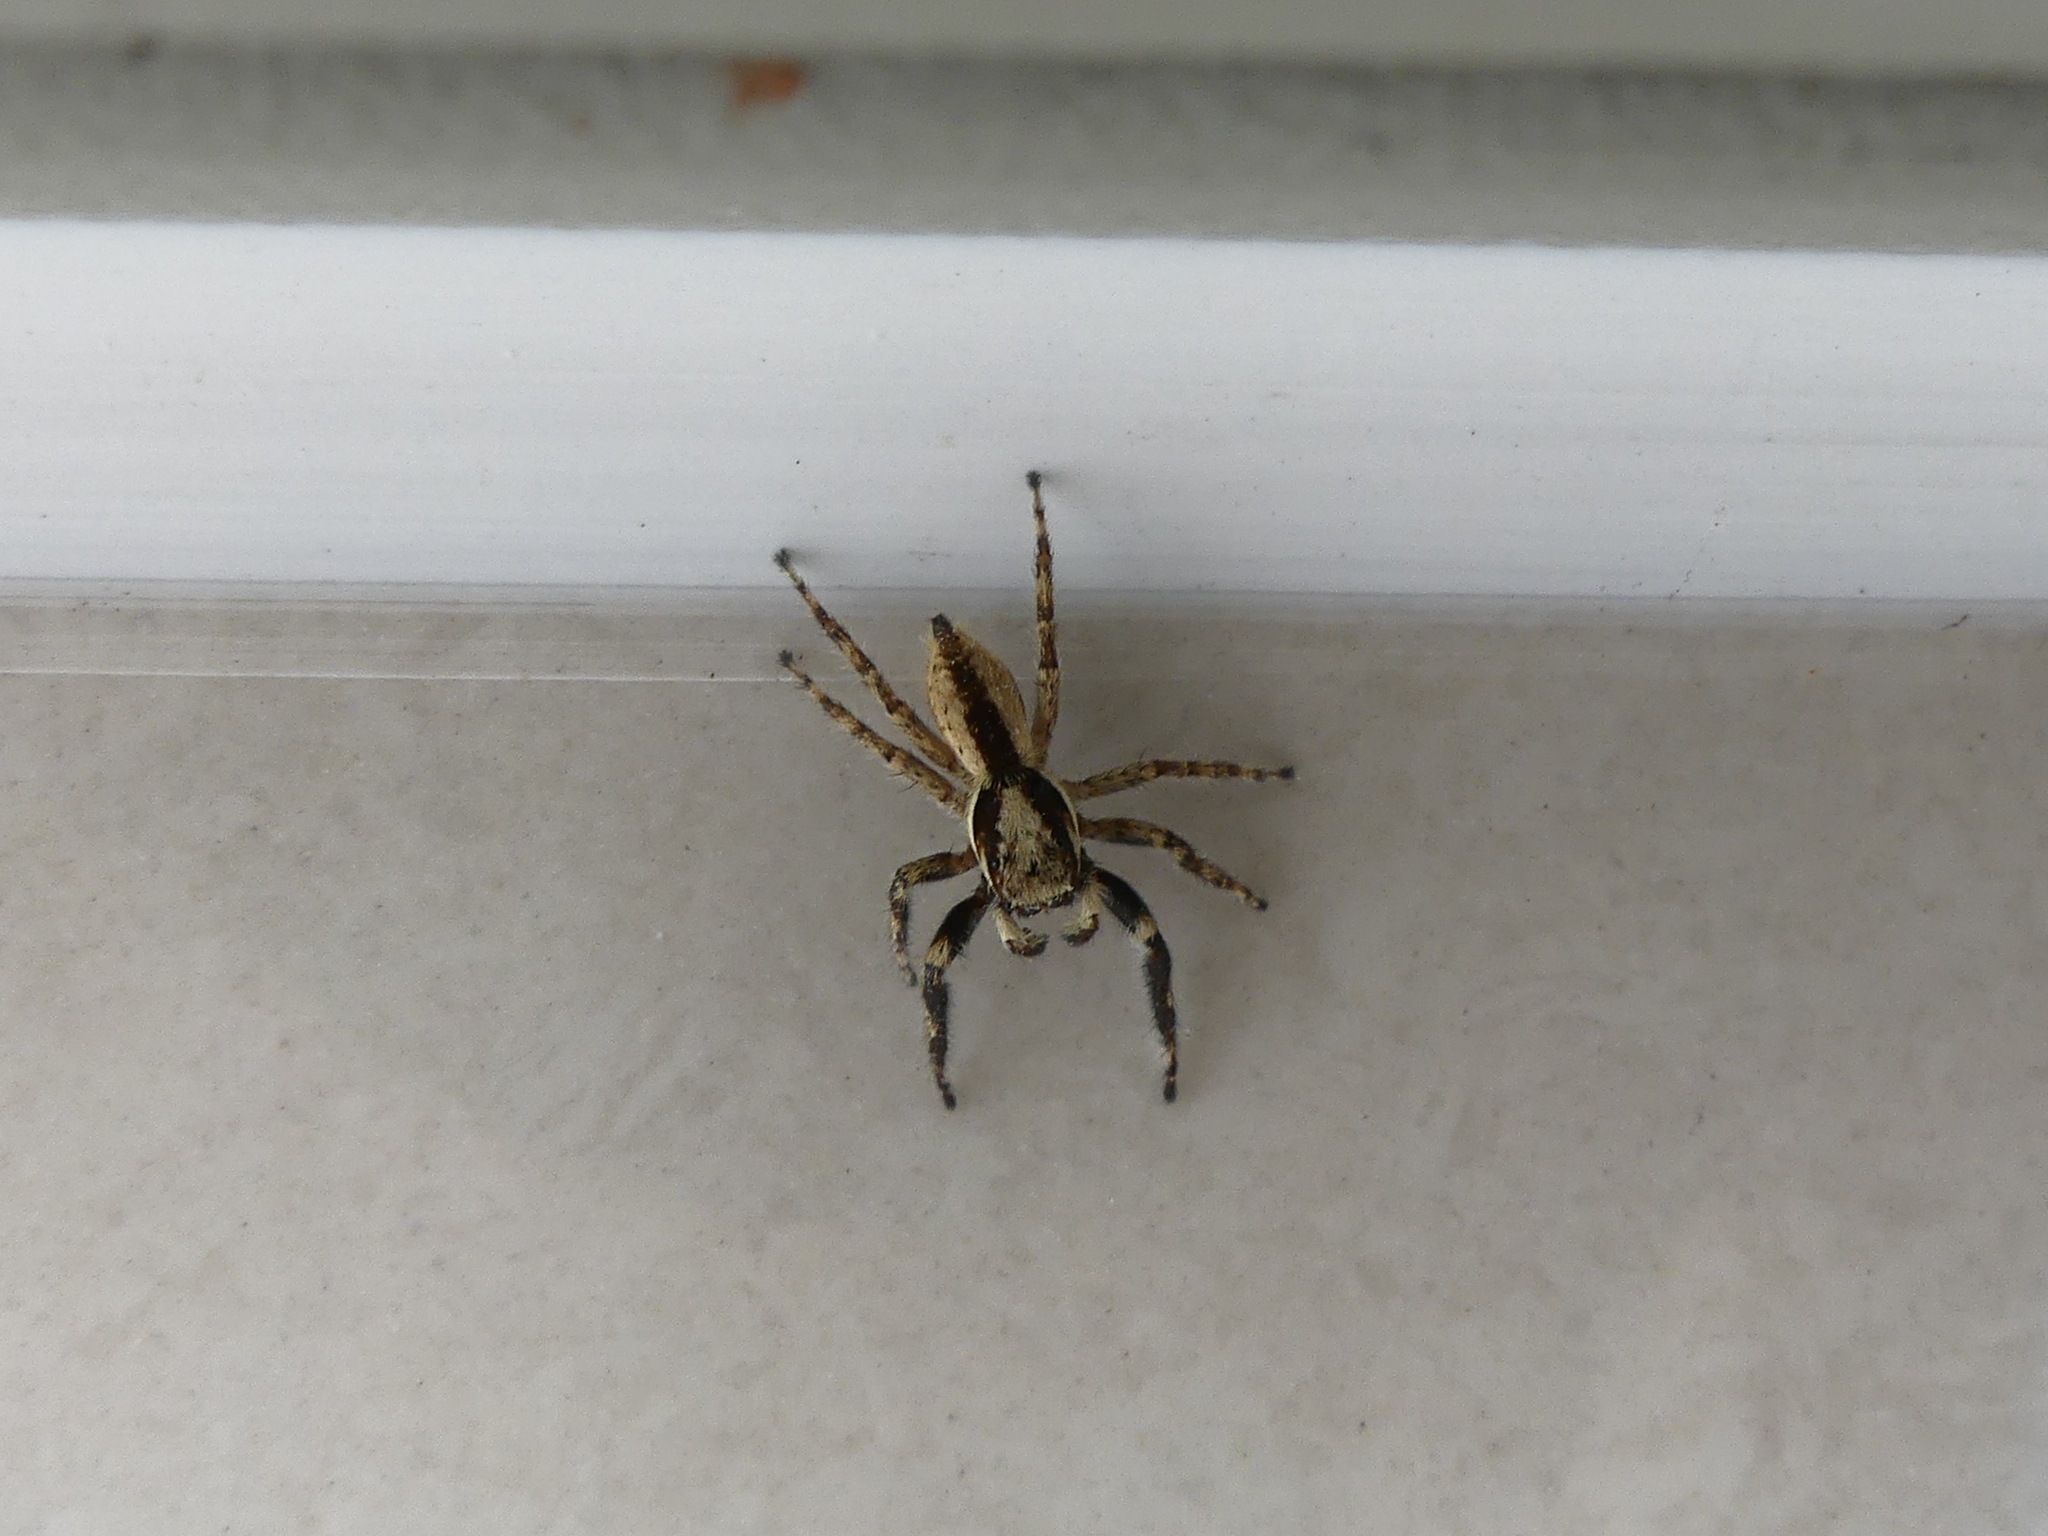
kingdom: Animalia
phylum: Arthropoda
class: Arachnida
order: Araneae
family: Salticidae
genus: Menemerus
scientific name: Menemerus bivittatus
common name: Gray wall jumper
